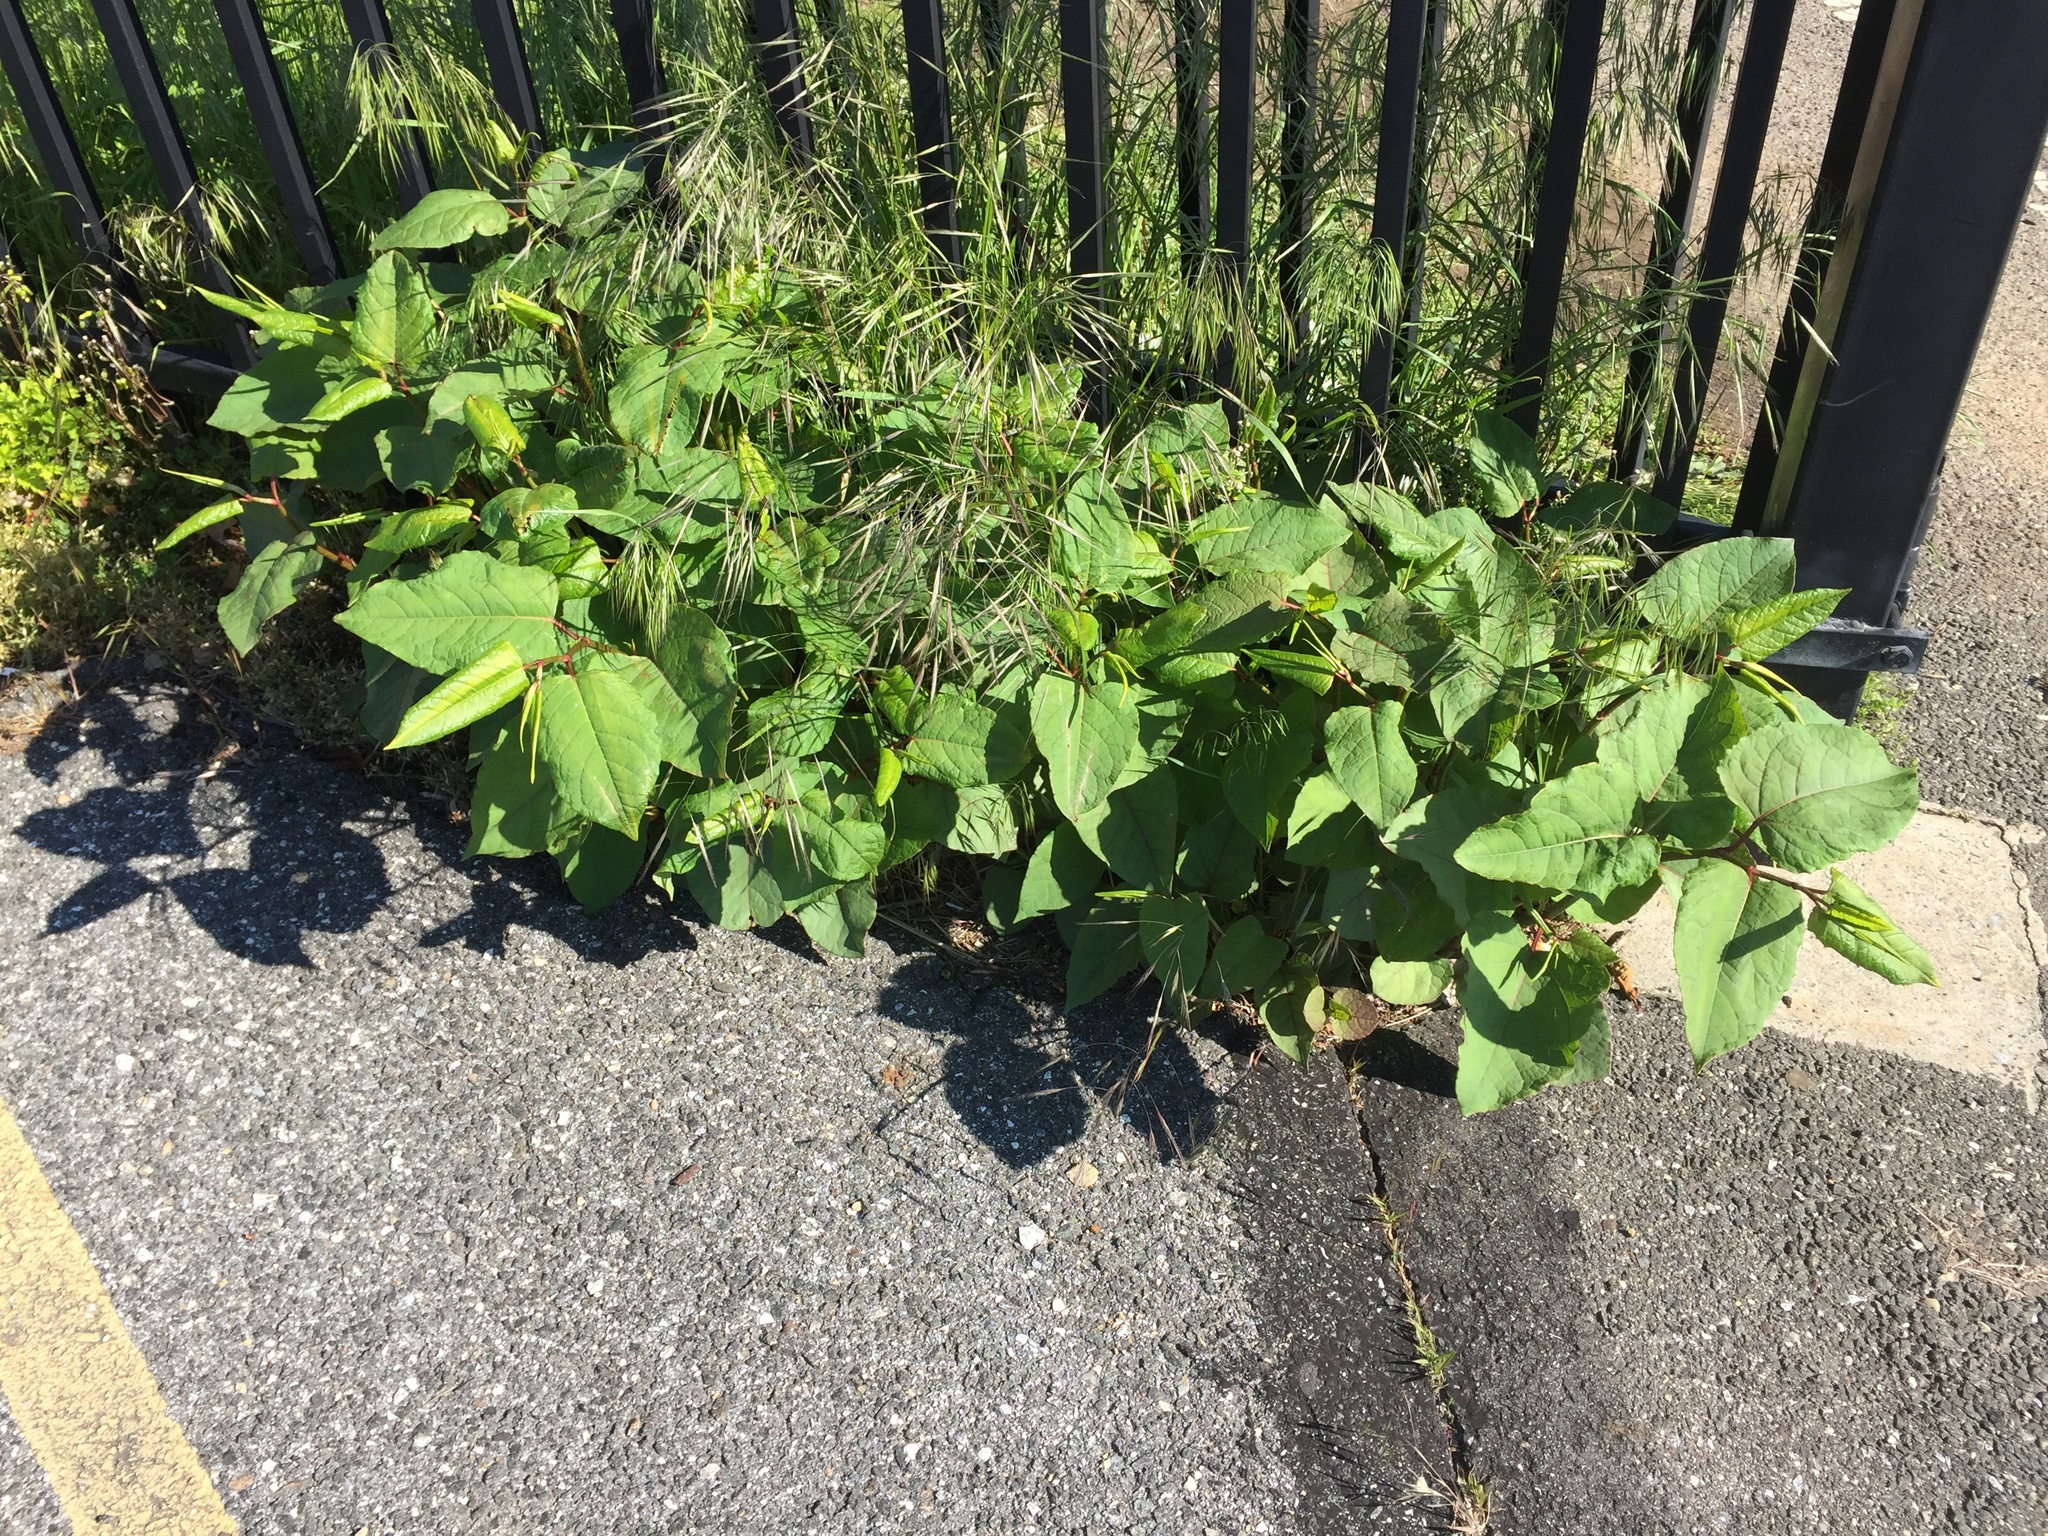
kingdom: Plantae
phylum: Tracheophyta
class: Magnoliopsida
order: Caryophyllales
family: Polygonaceae
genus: Reynoutria
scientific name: Reynoutria japonica
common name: Japanese knotweed
